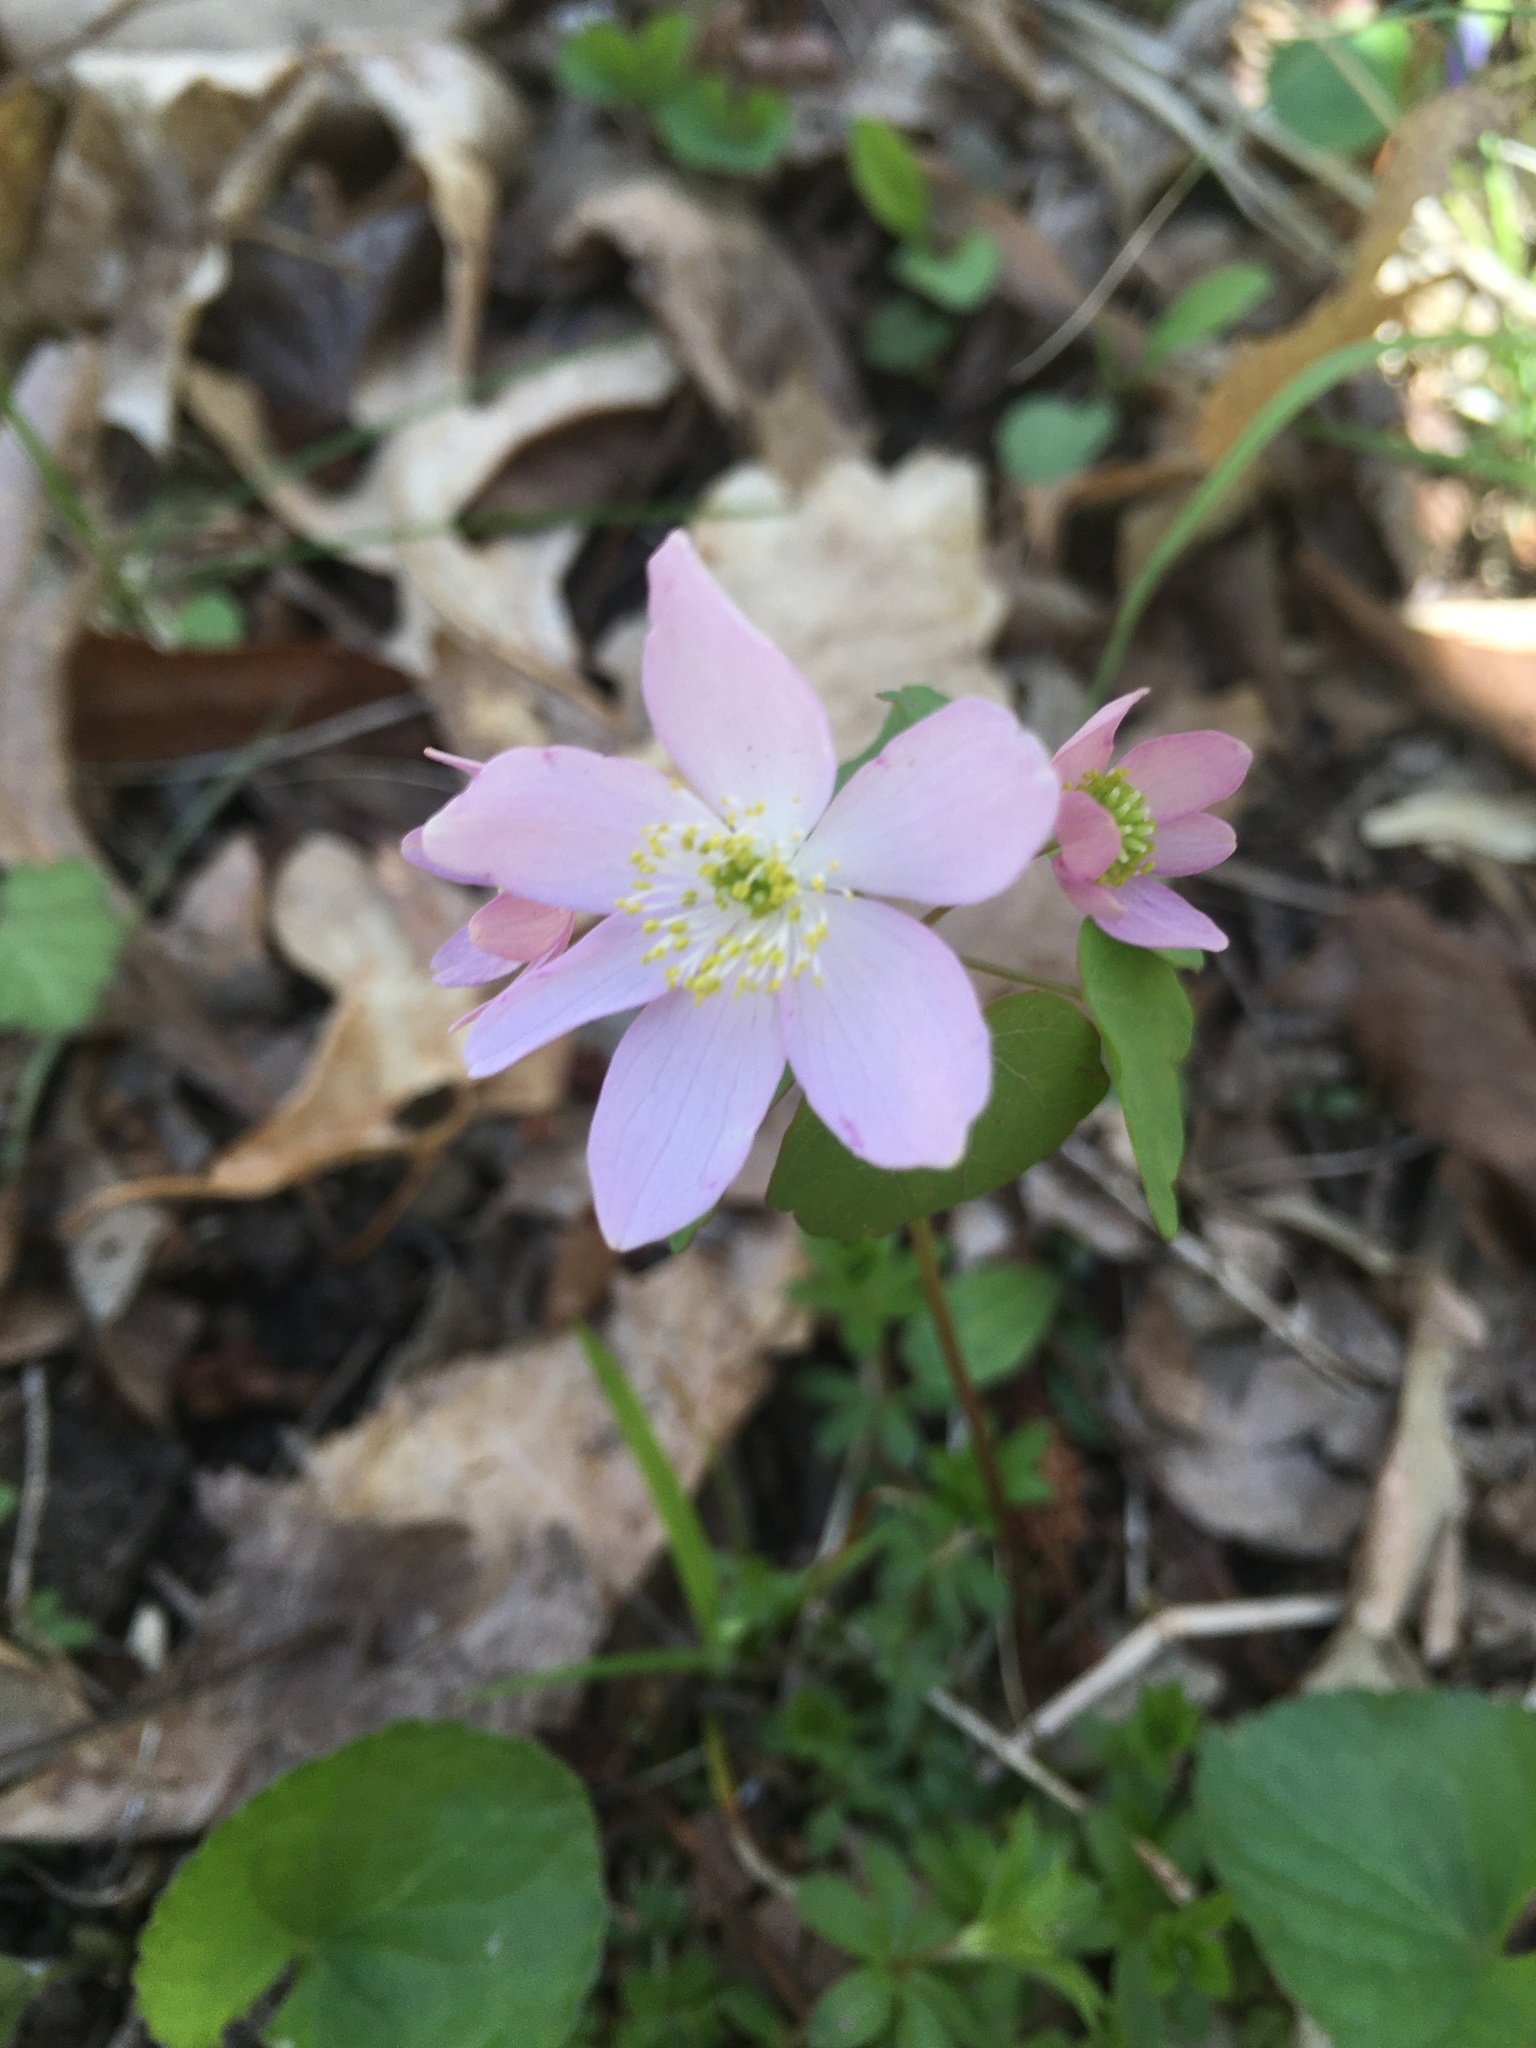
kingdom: Plantae
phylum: Tracheophyta
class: Magnoliopsida
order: Ranunculales
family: Ranunculaceae
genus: Thalictrum
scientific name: Thalictrum thalictroides
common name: Rue-anemone
